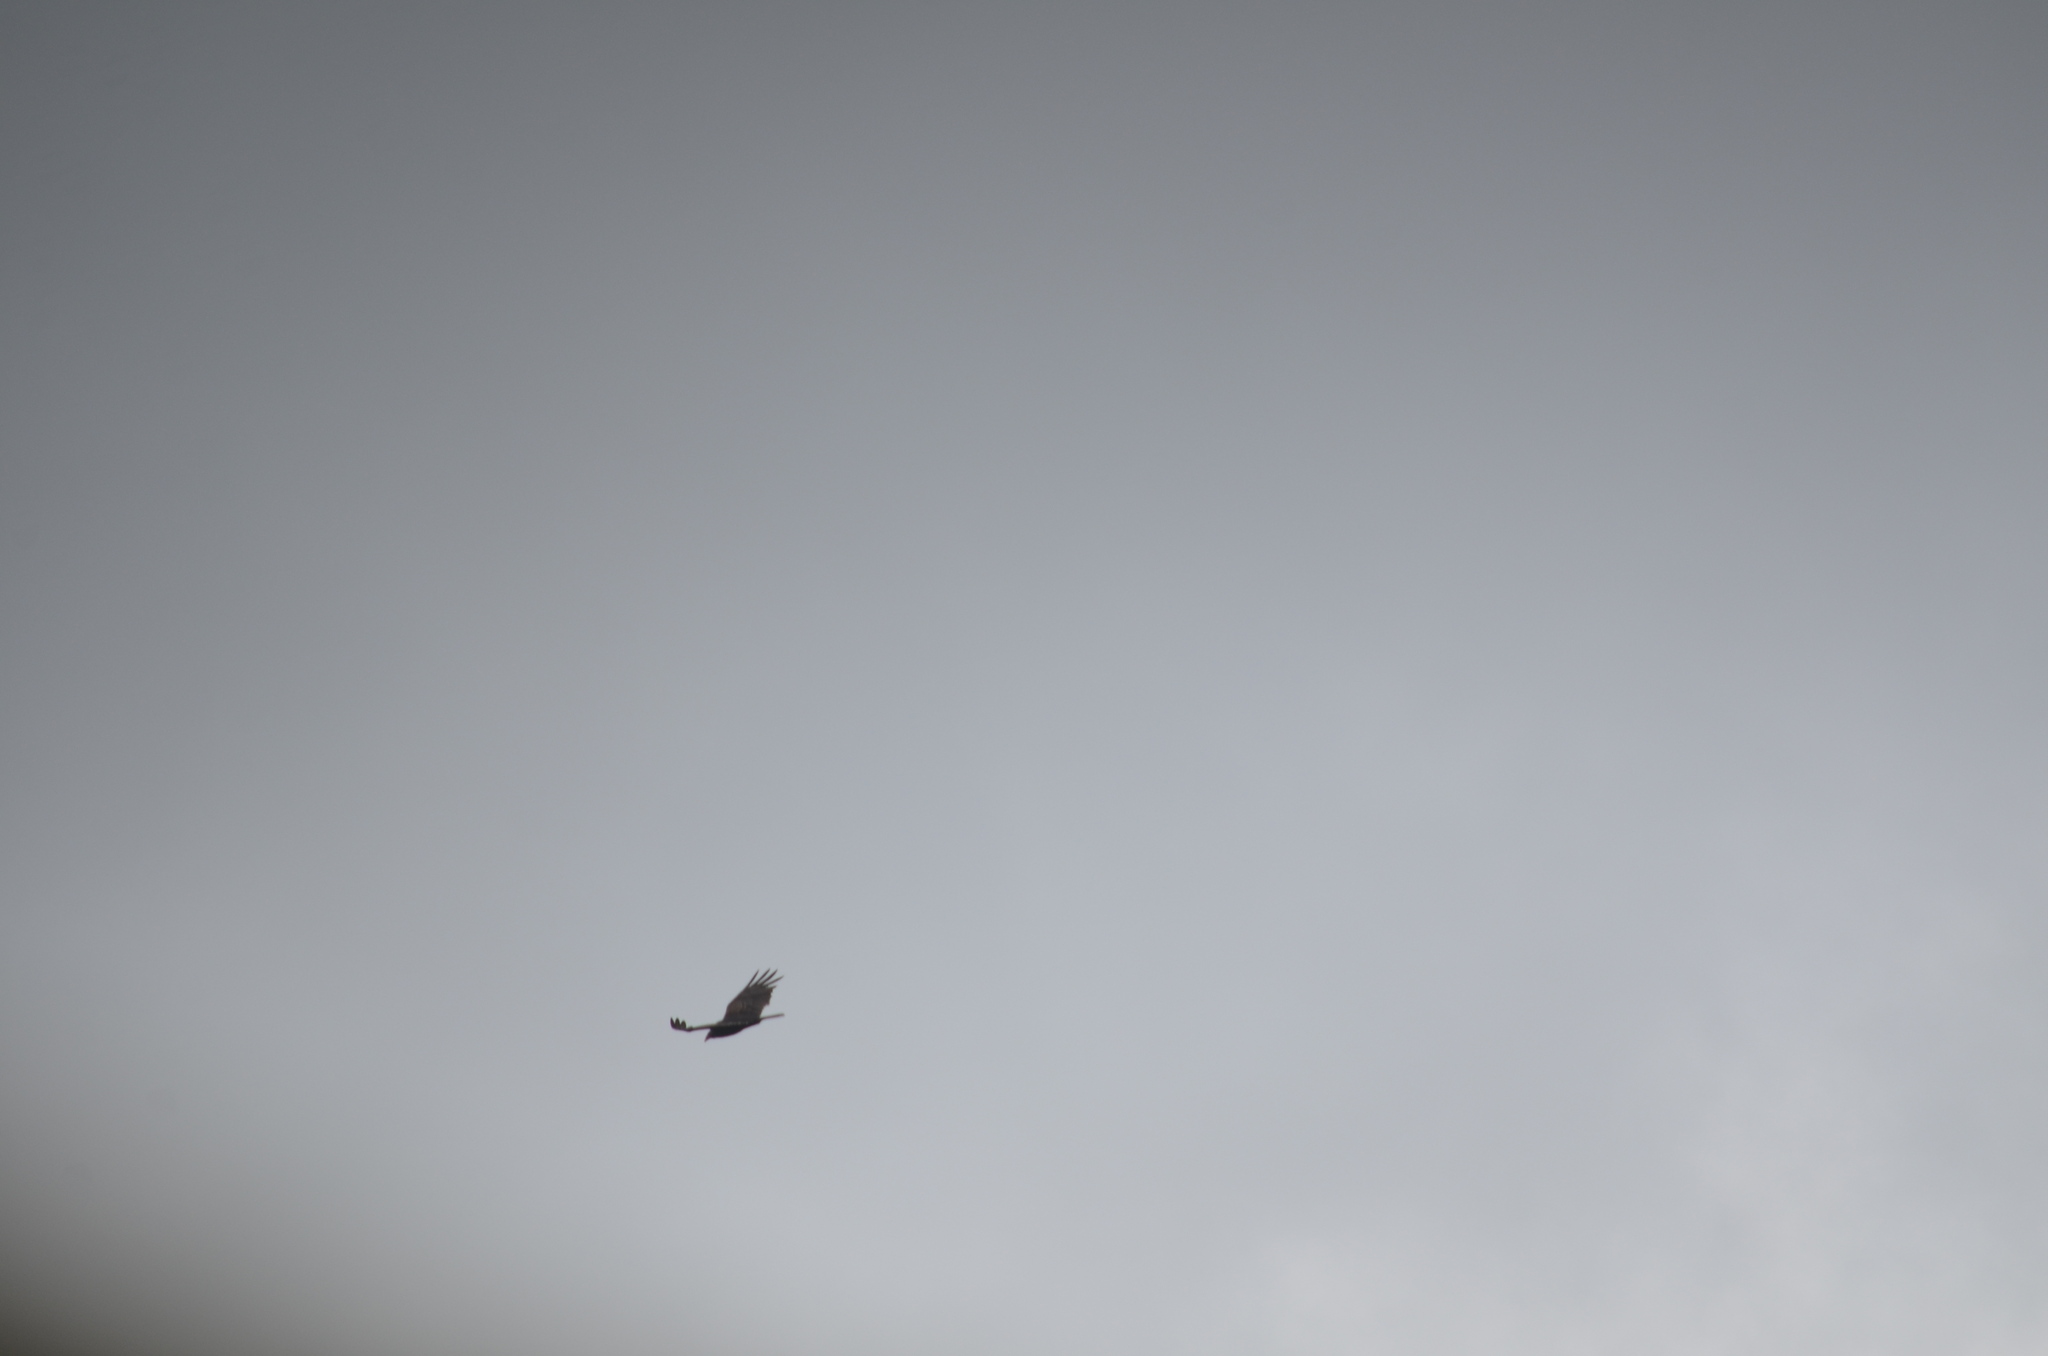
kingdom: Animalia
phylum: Chordata
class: Aves
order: Accipitriformes
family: Cathartidae
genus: Cathartes
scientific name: Cathartes aura
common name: Turkey vulture
